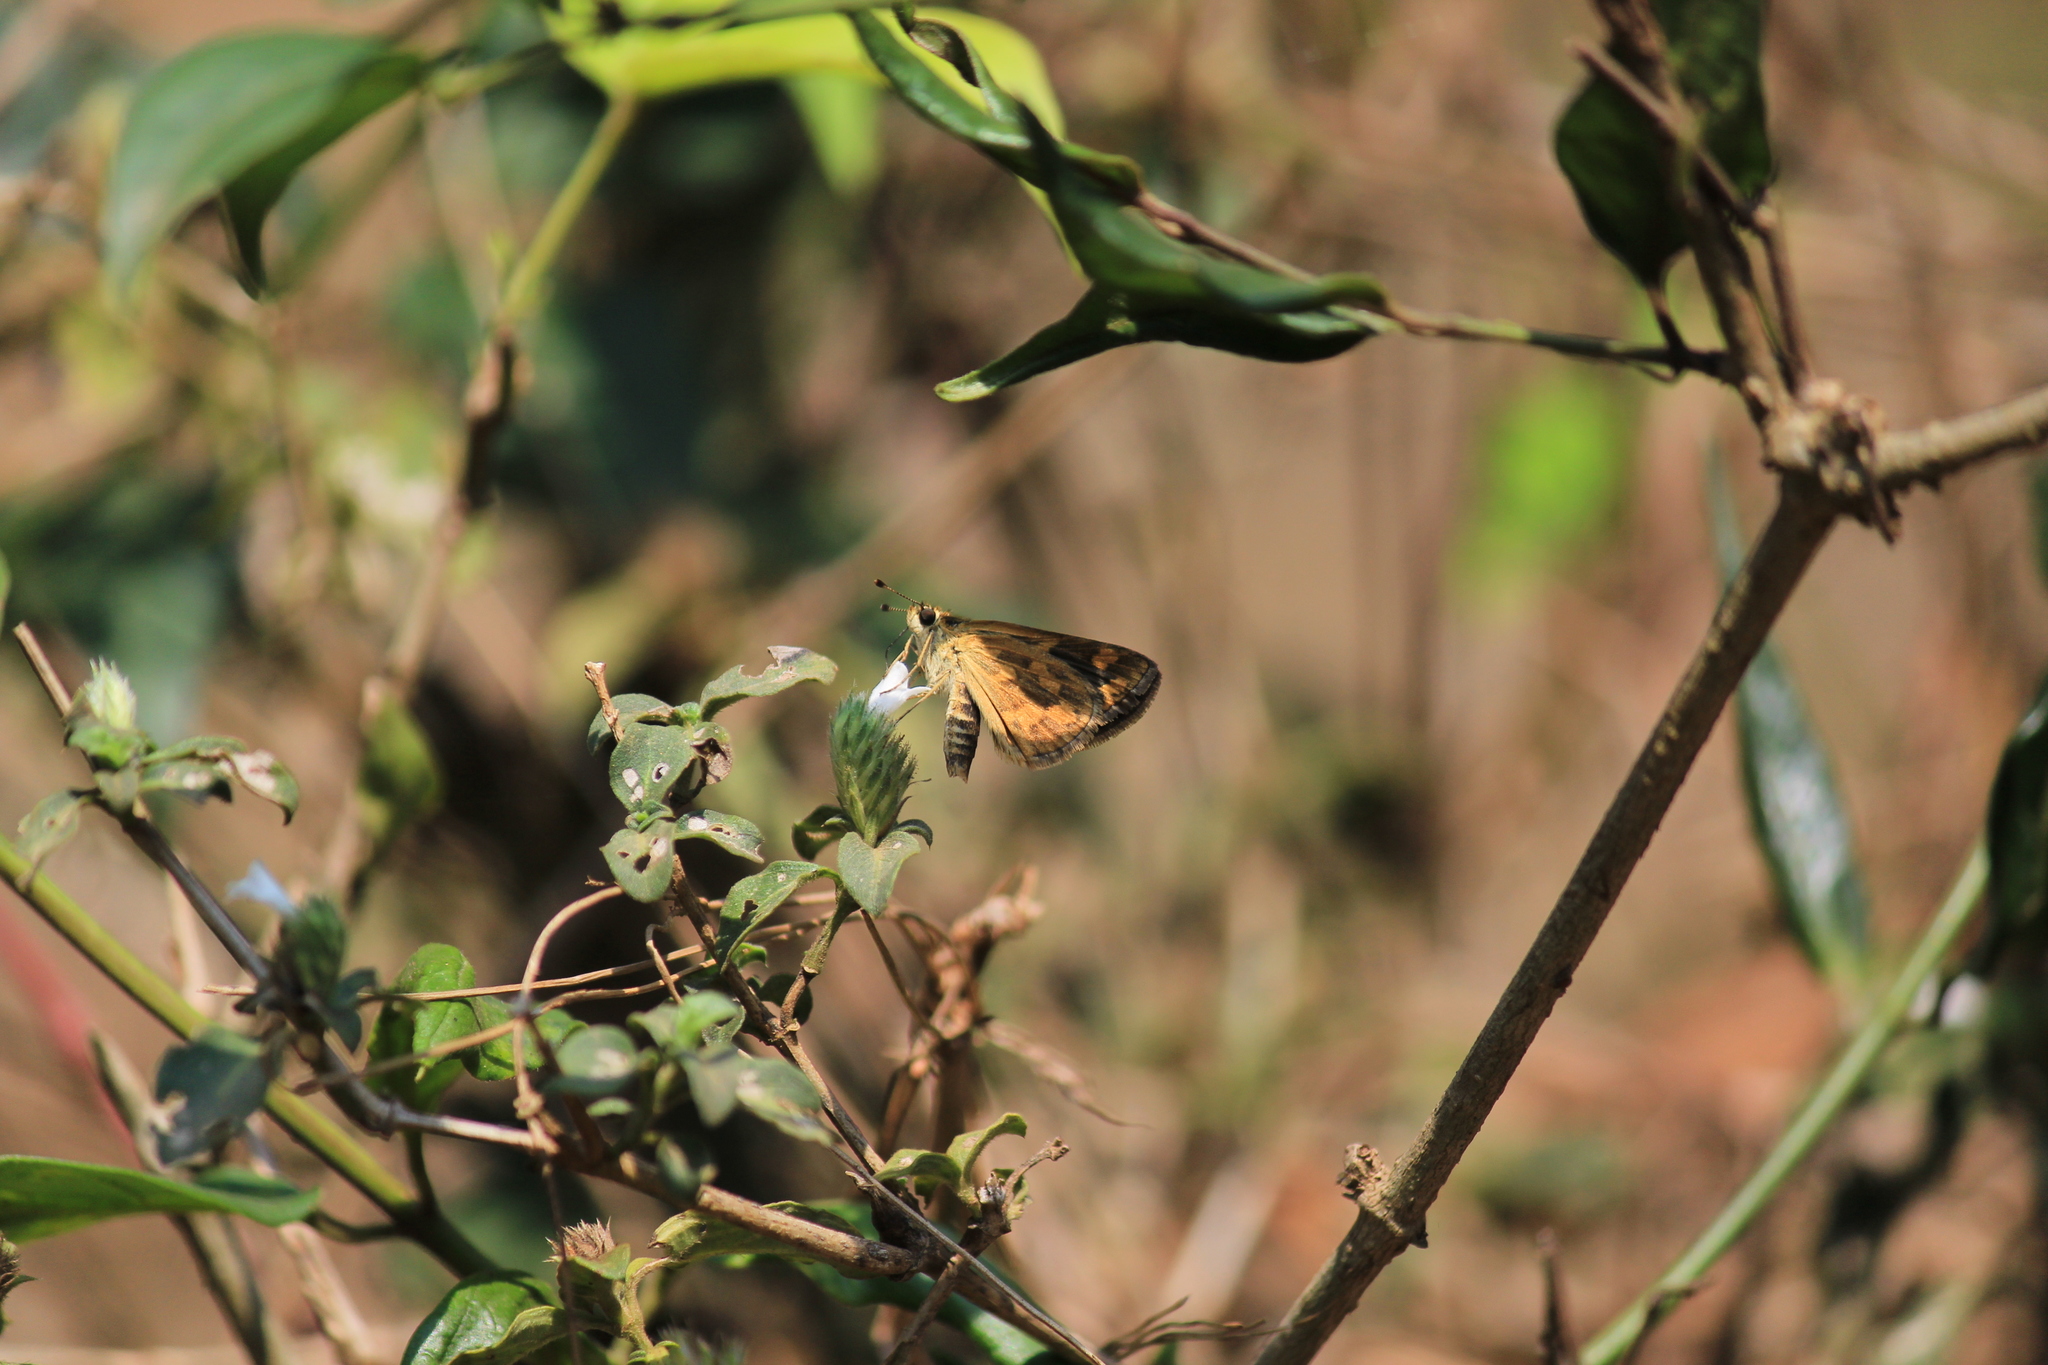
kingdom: Animalia
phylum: Arthropoda
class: Insecta
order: Lepidoptera
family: Hesperiidae
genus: Taractrocera
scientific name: Taractrocera ceramas
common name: Tamil grass dart
